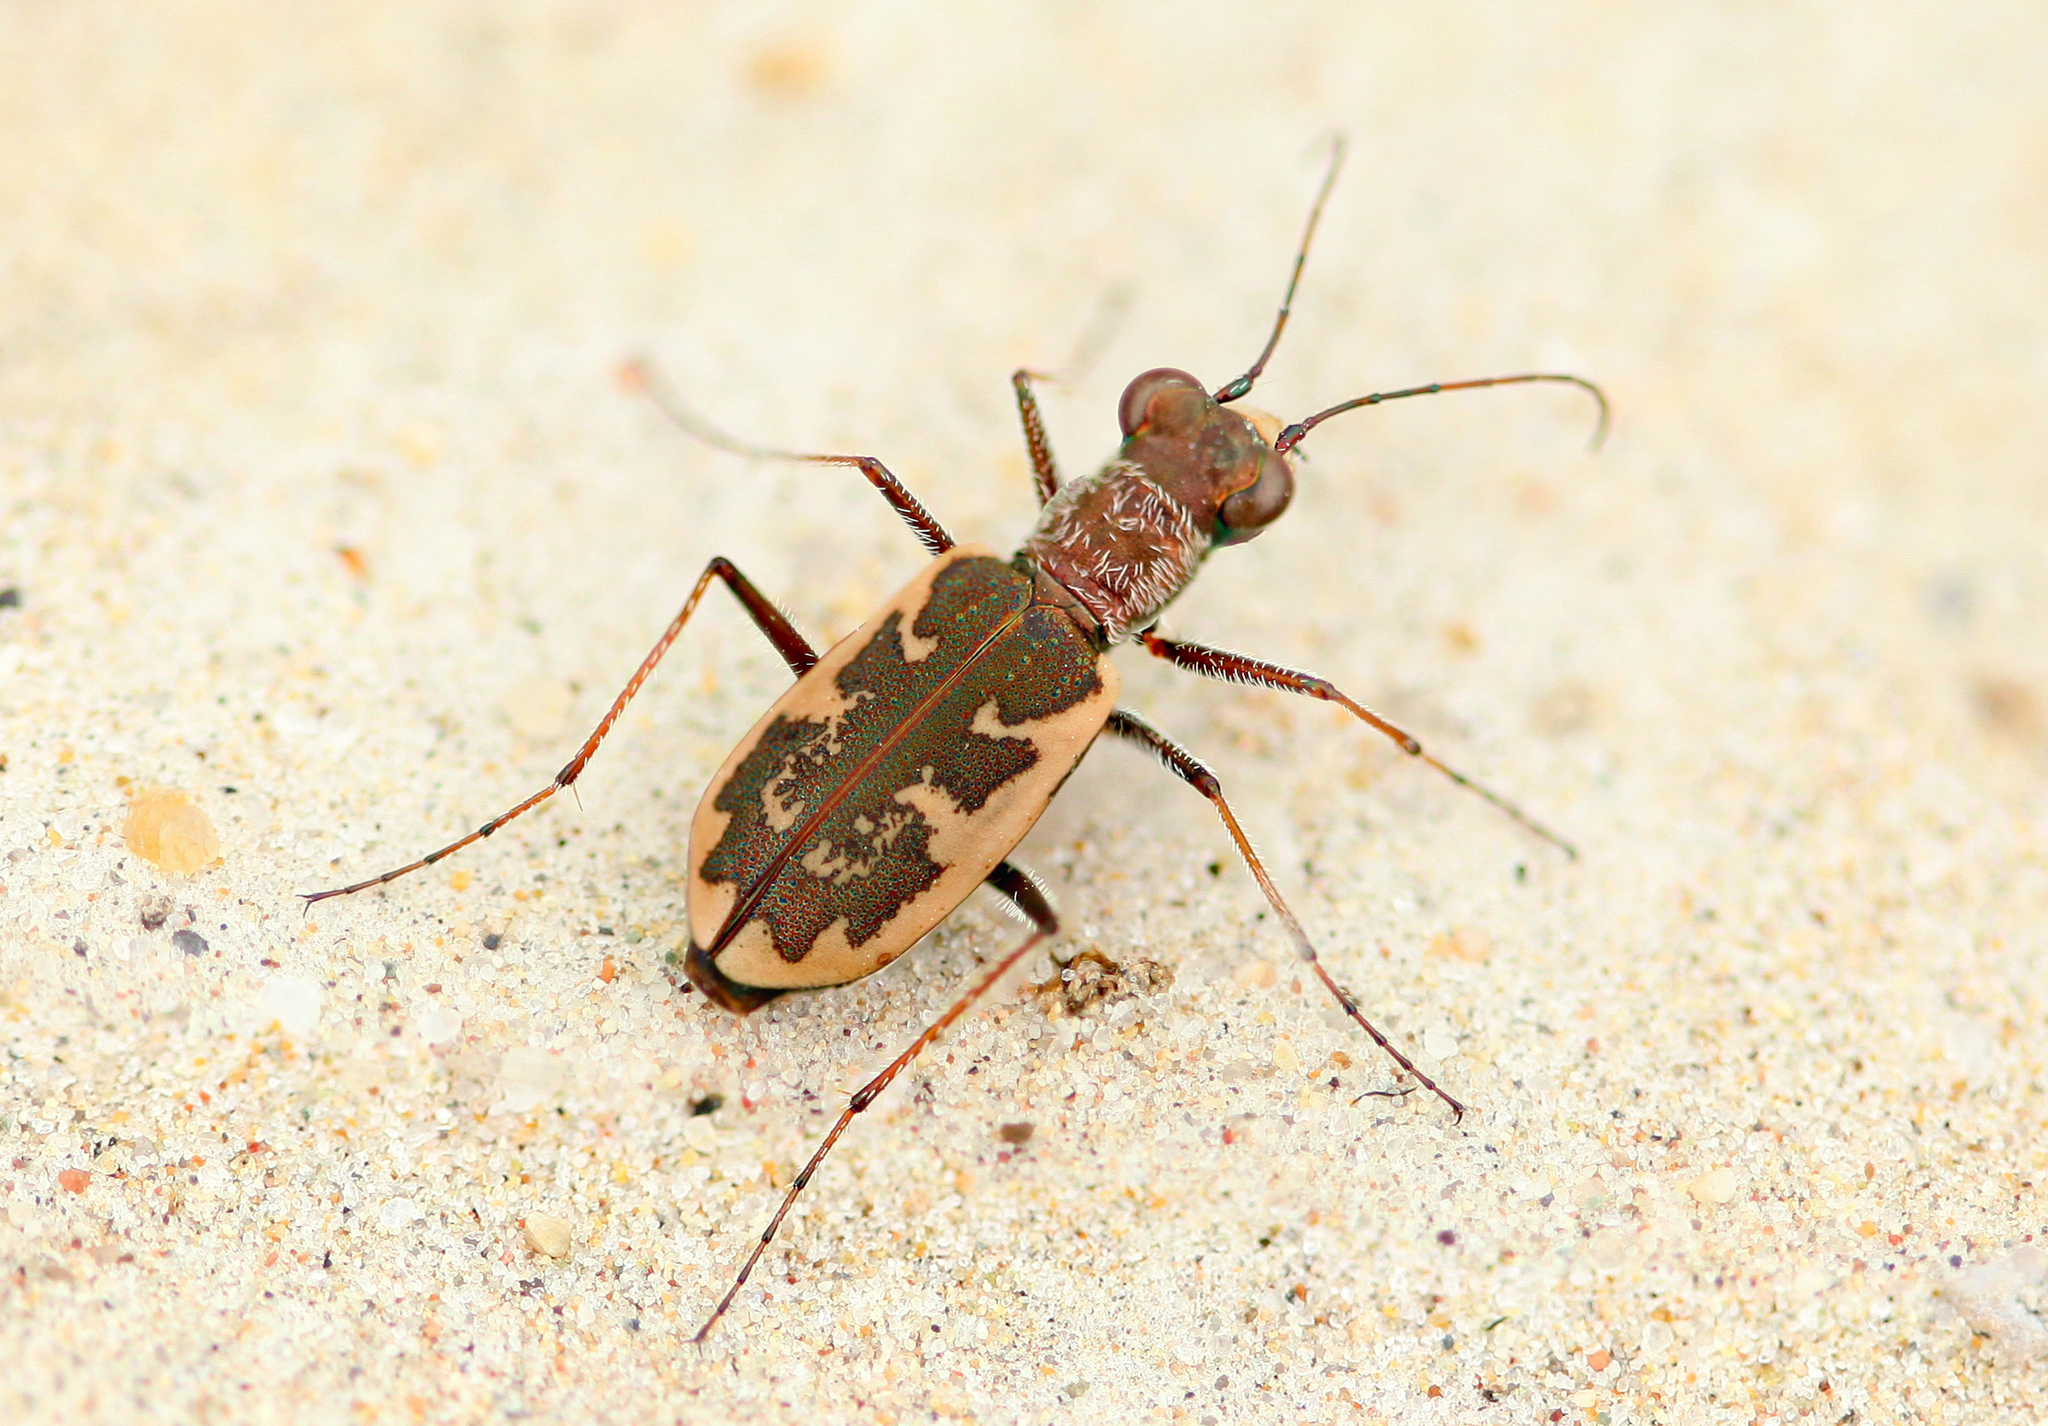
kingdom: Animalia
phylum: Arthropoda
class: Insecta
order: Coleoptera
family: Carabidae
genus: Cephalota
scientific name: Cephalota chiloleuca
